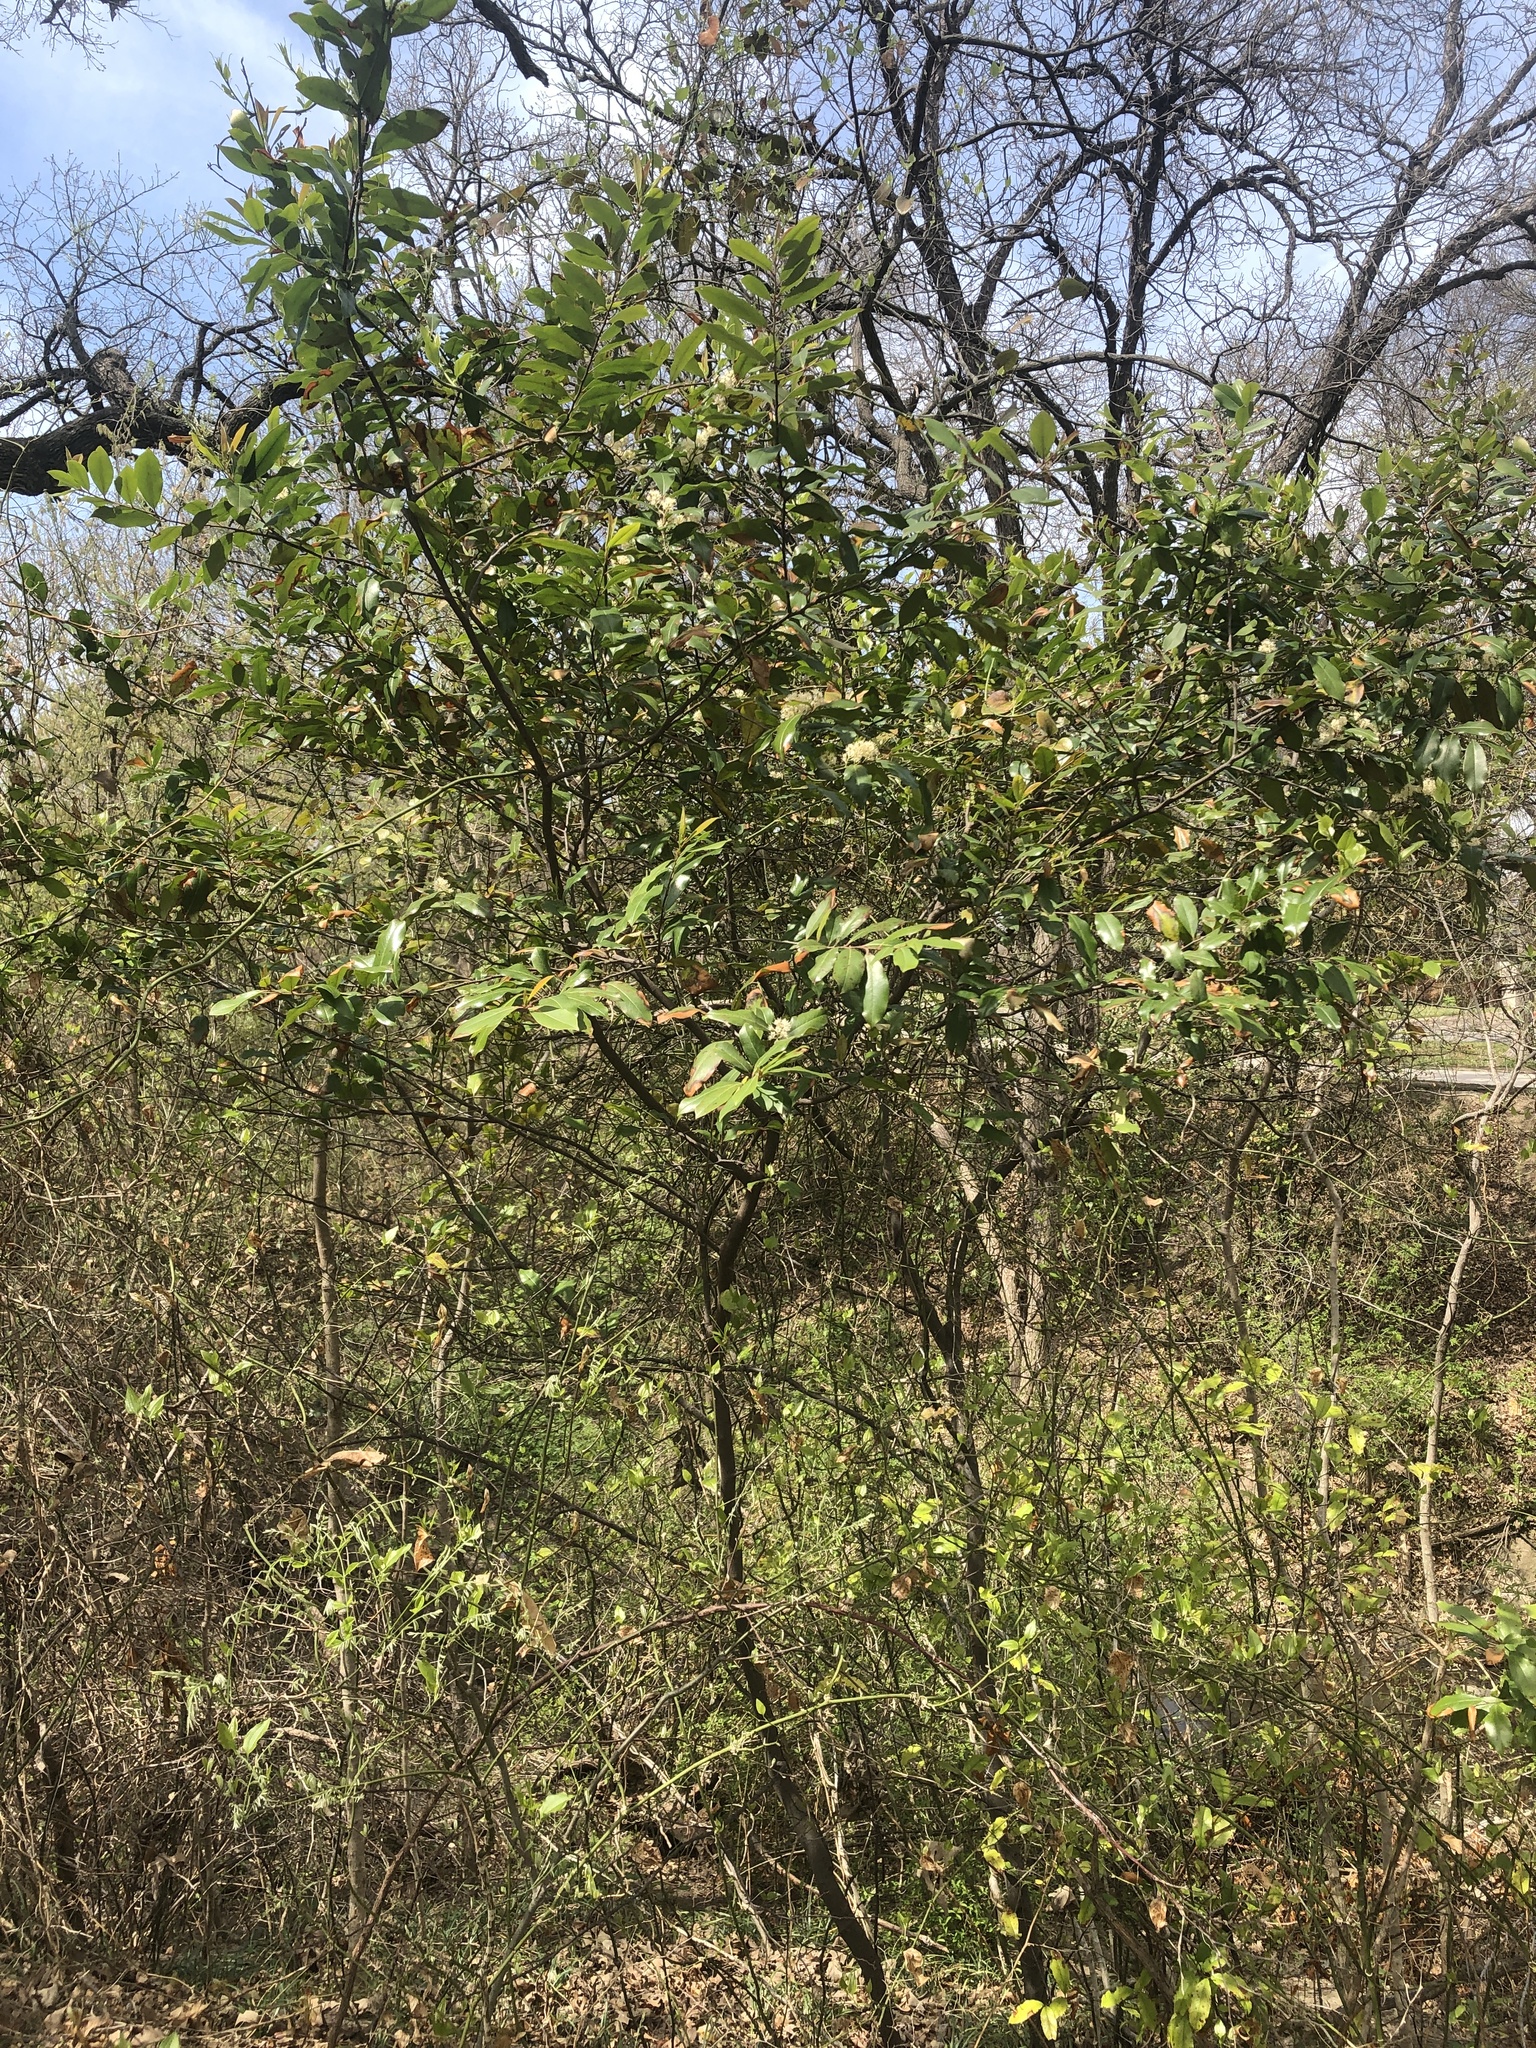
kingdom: Plantae
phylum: Tracheophyta
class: Magnoliopsida
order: Rosales
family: Rosaceae
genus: Prunus
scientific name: Prunus caroliniana
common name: Carolina laurel cherry
